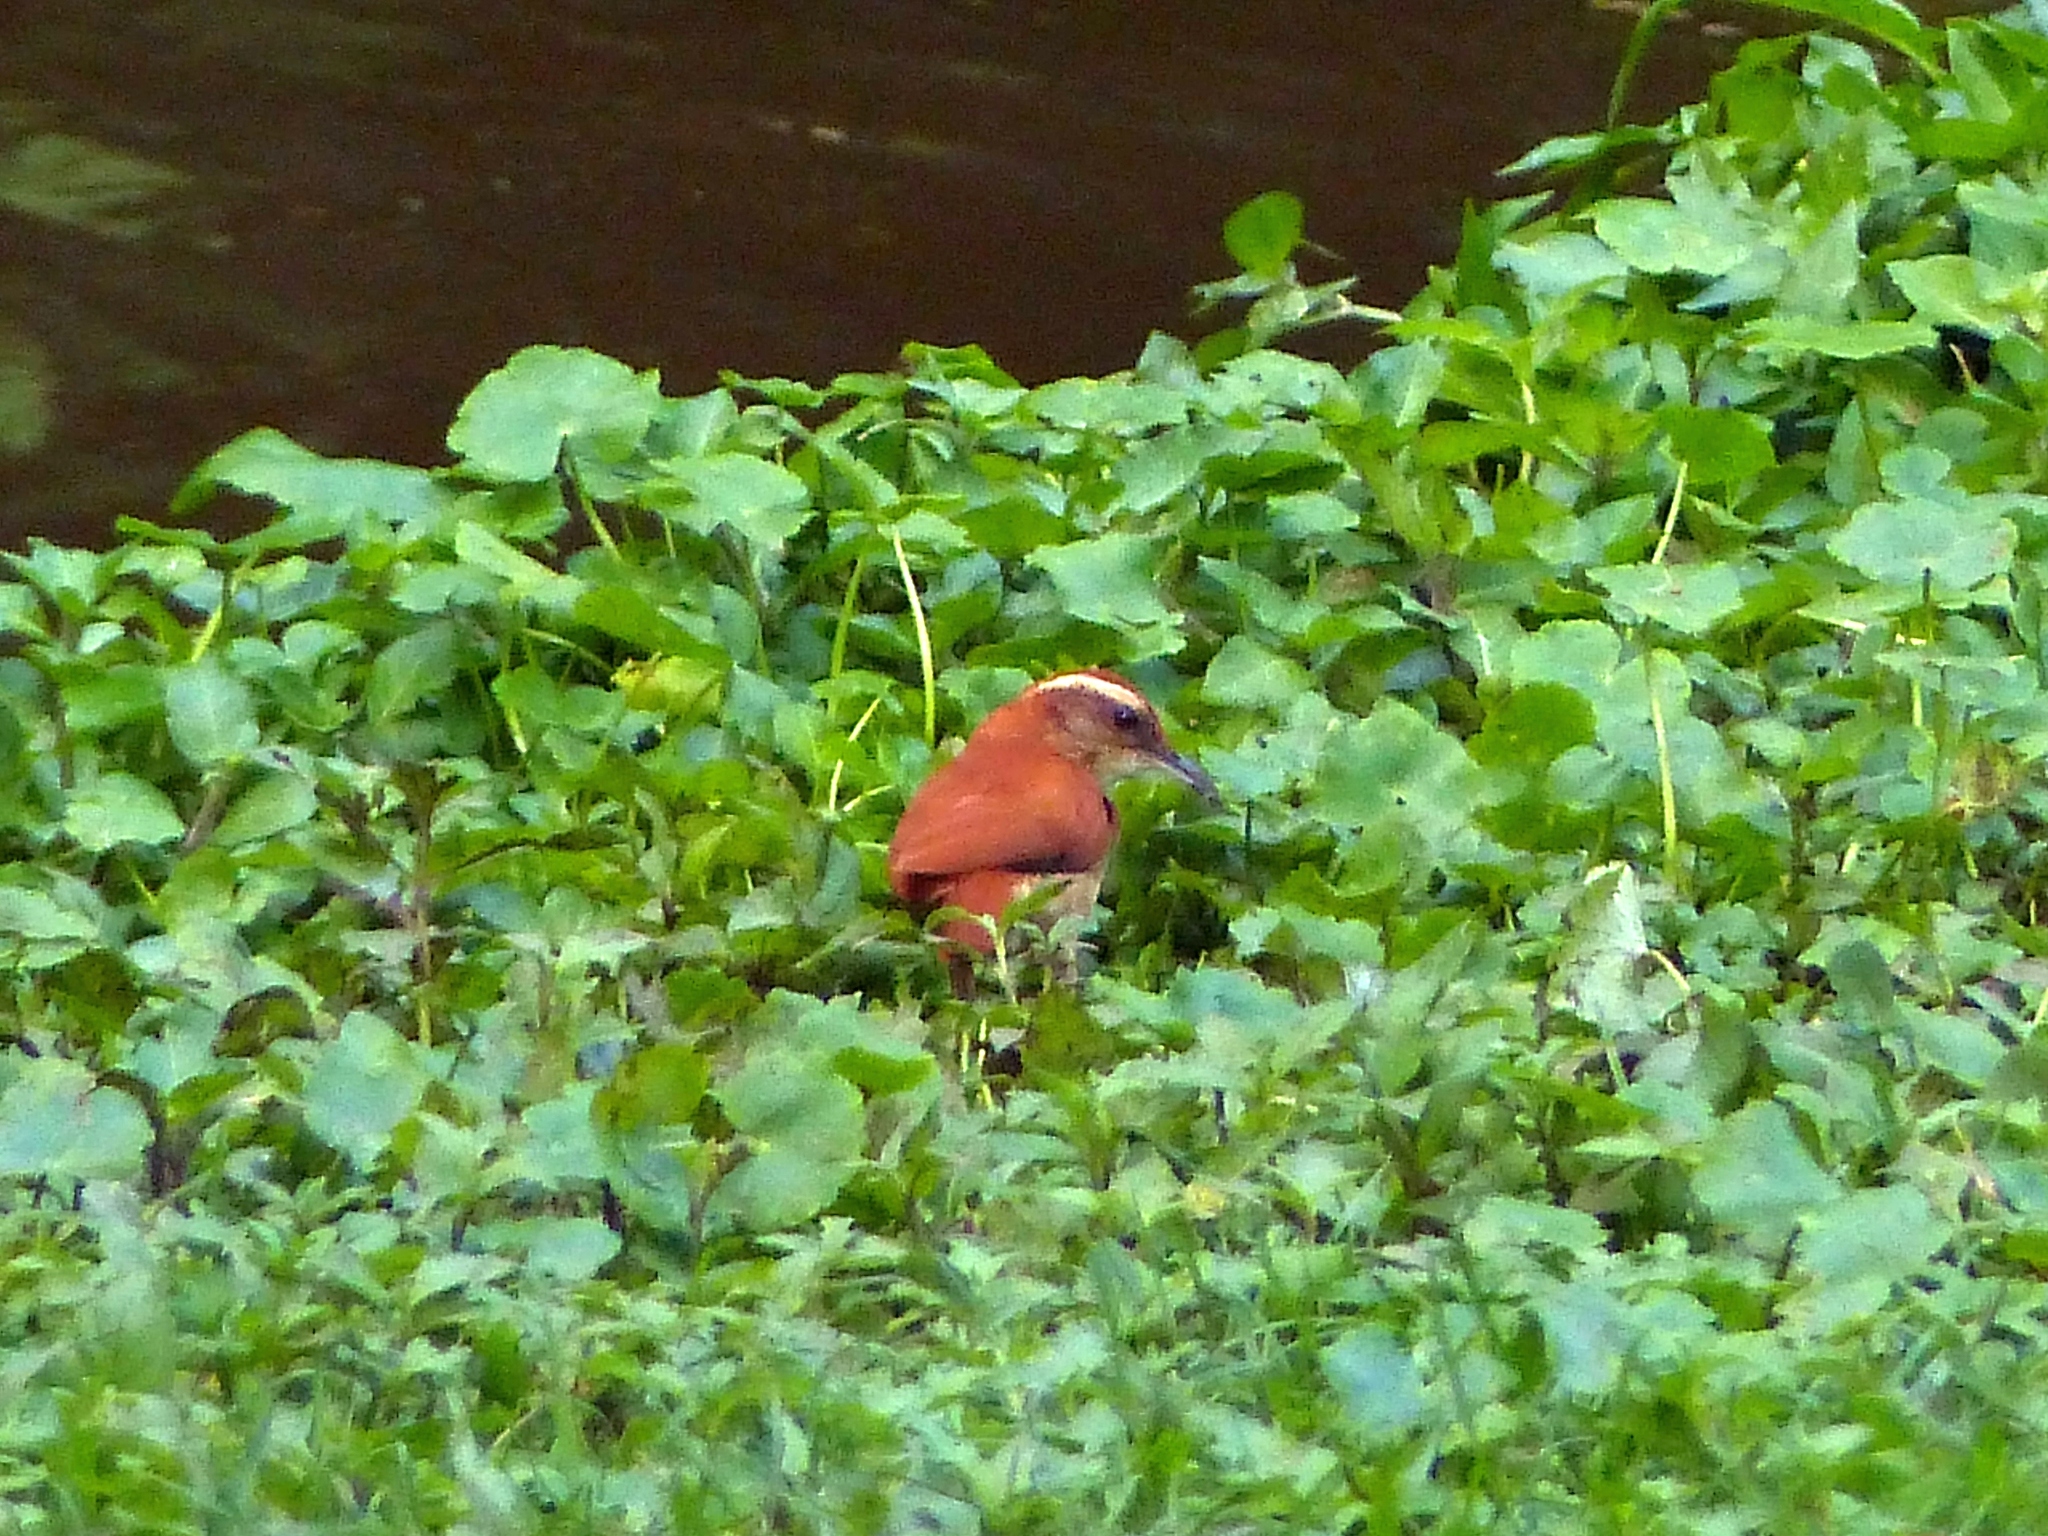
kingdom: Animalia
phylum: Chordata
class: Aves
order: Passeriformes
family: Furnariidae
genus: Furnarius
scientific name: Furnarius figulus
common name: Band-tailed hornero
